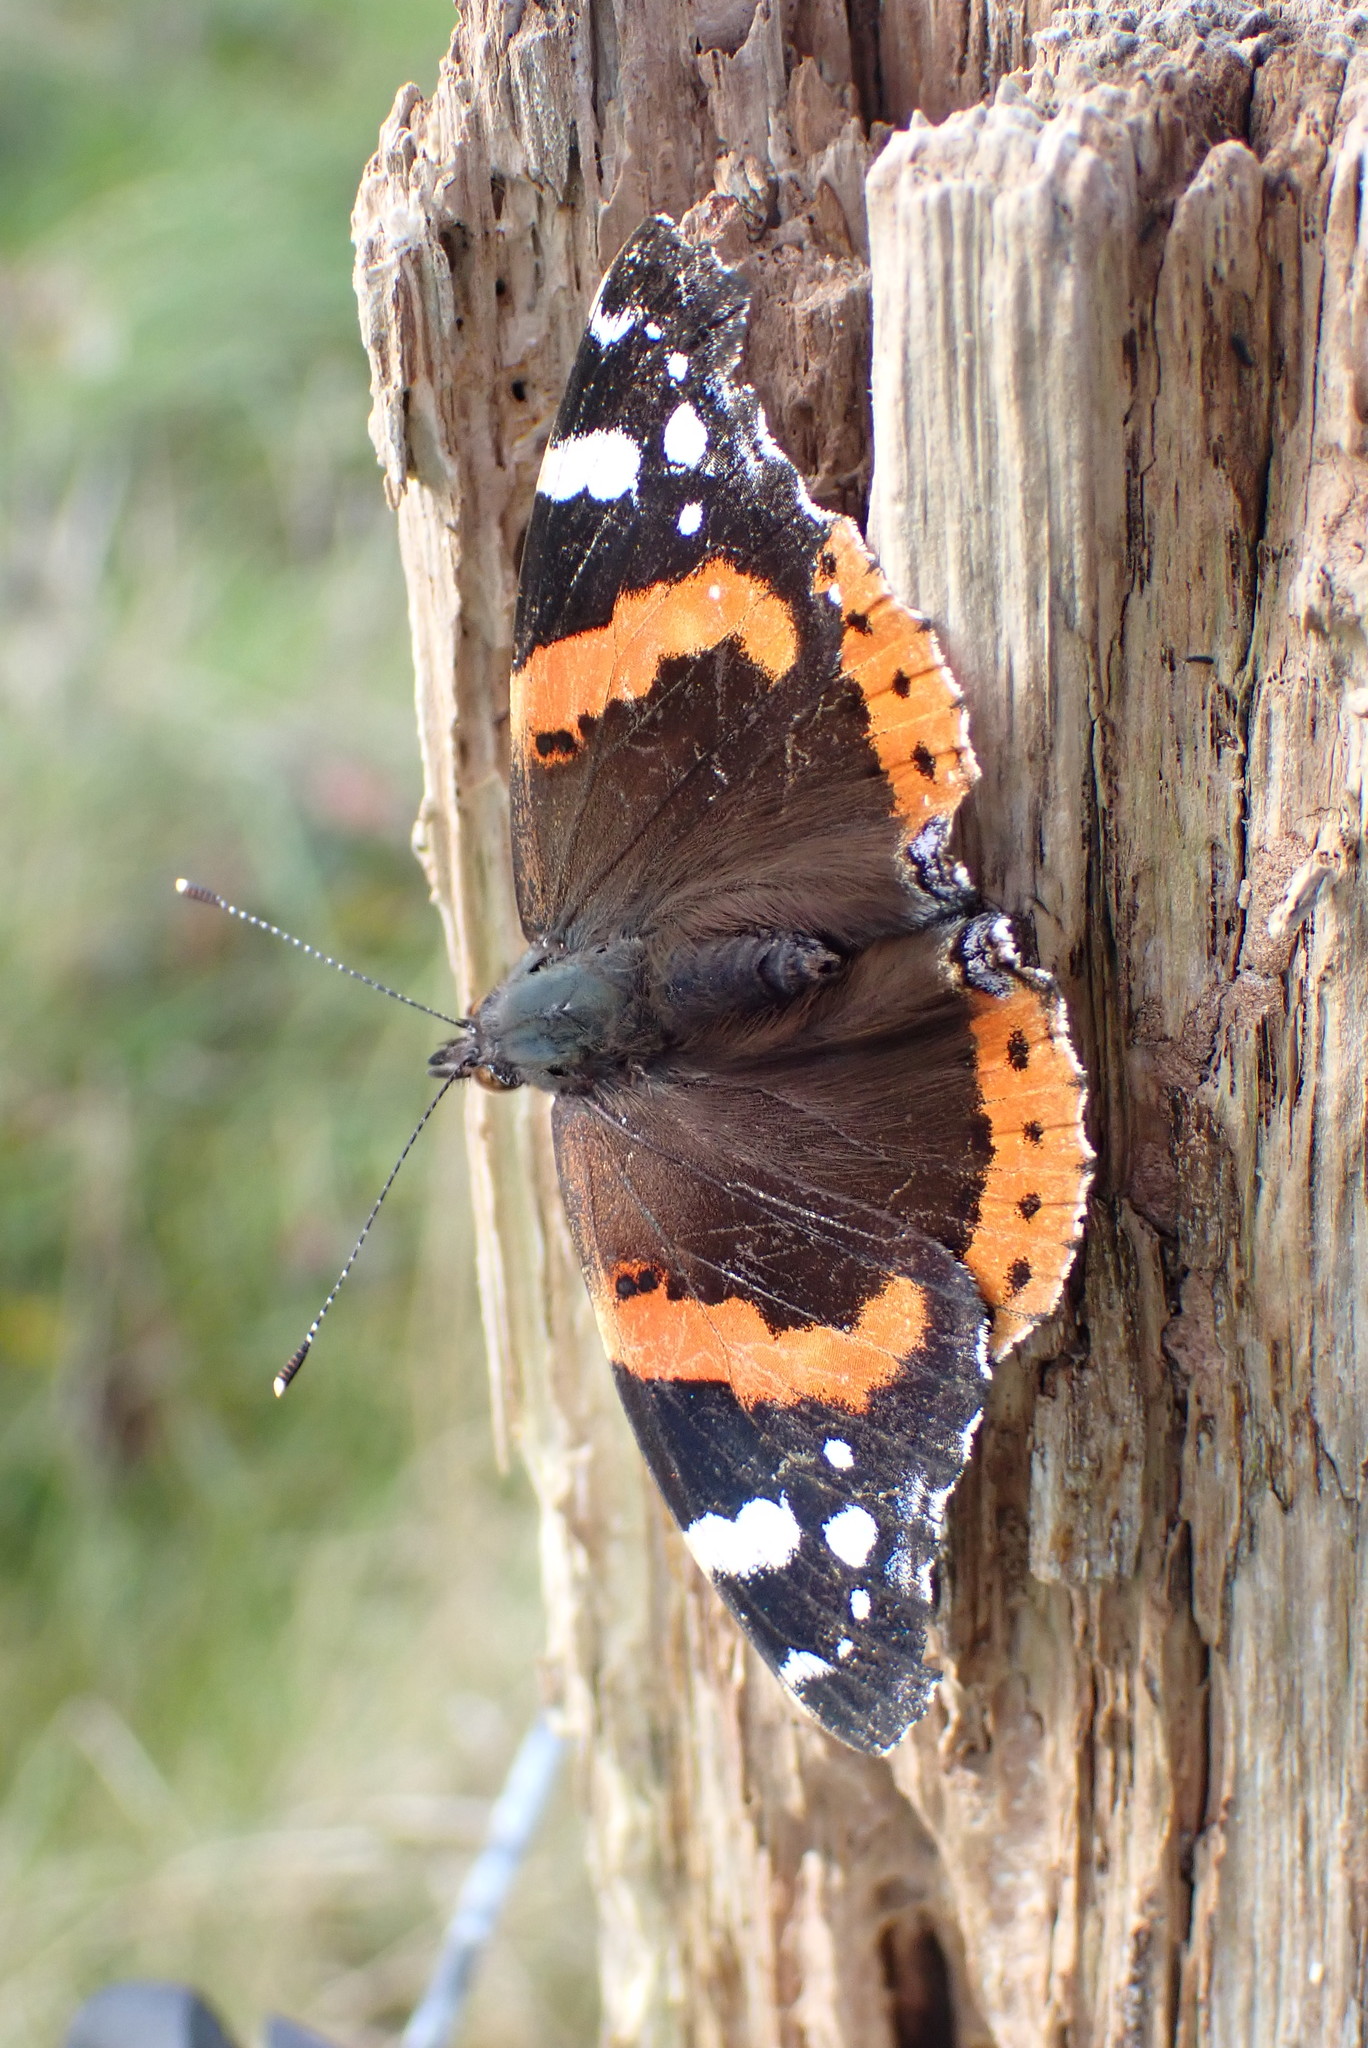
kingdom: Animalia
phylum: Arthropoda
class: Insecta
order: Lepidoptera
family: Nymphalidae
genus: Vanessa
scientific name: Vanessa atalanta
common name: Red admiral
